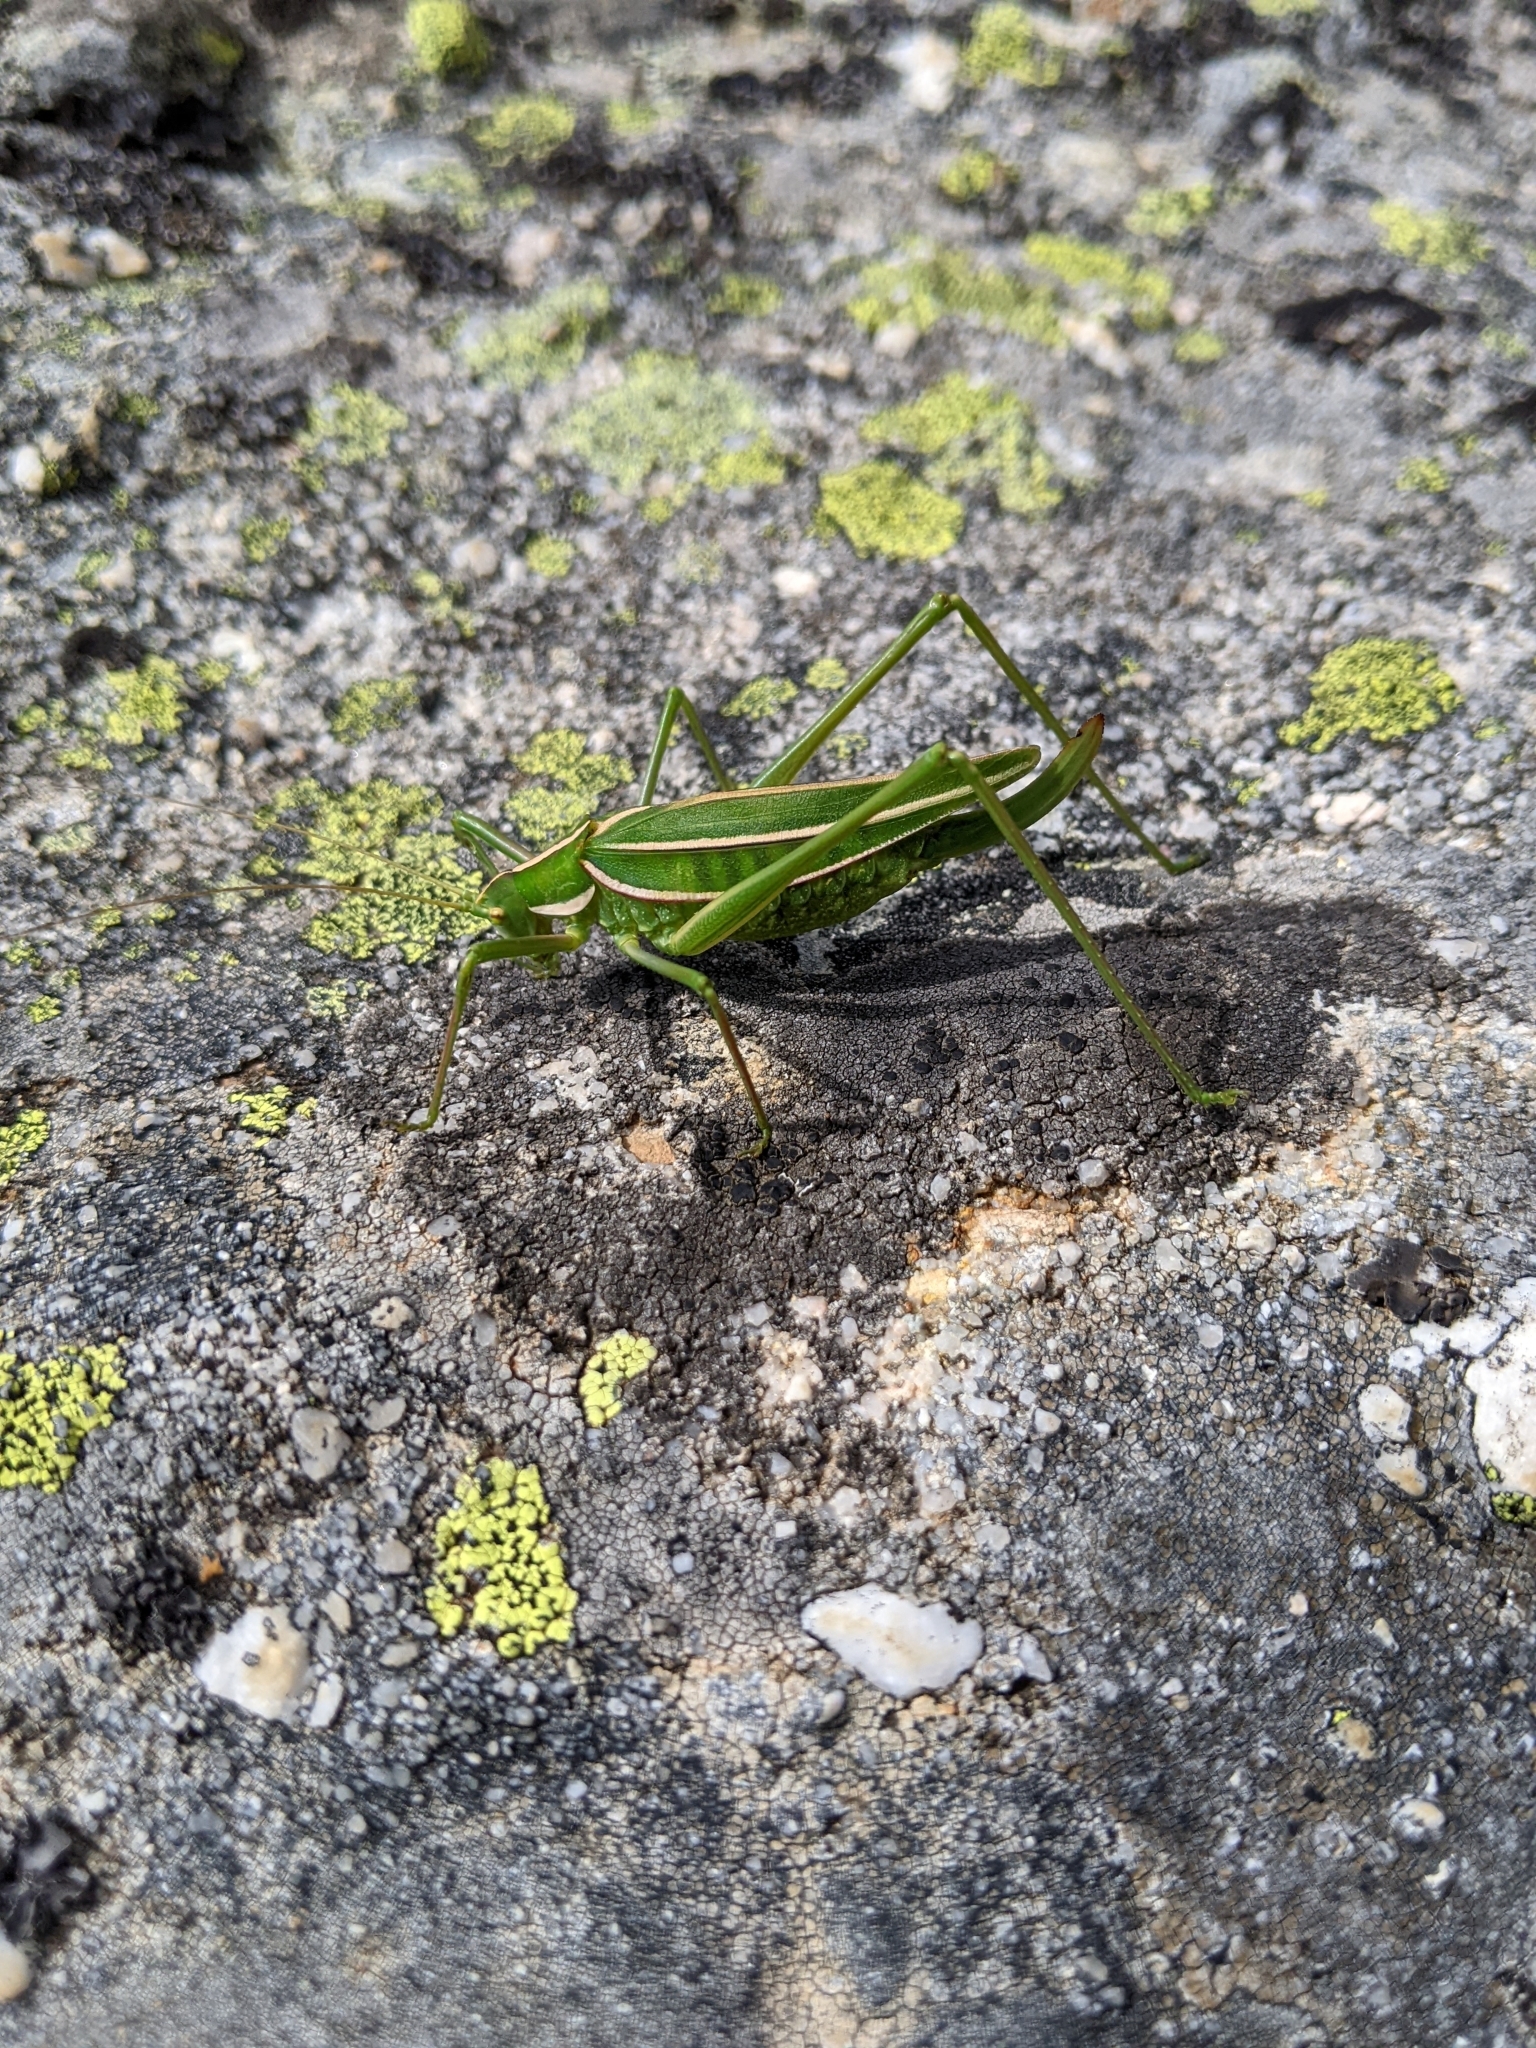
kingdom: Animalia
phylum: Arthropoda
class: Insecta
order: Orthoptera
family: Tettigoniidae
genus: Tinzeda
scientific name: Tinzeda albosignata
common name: Stout tinzeda
